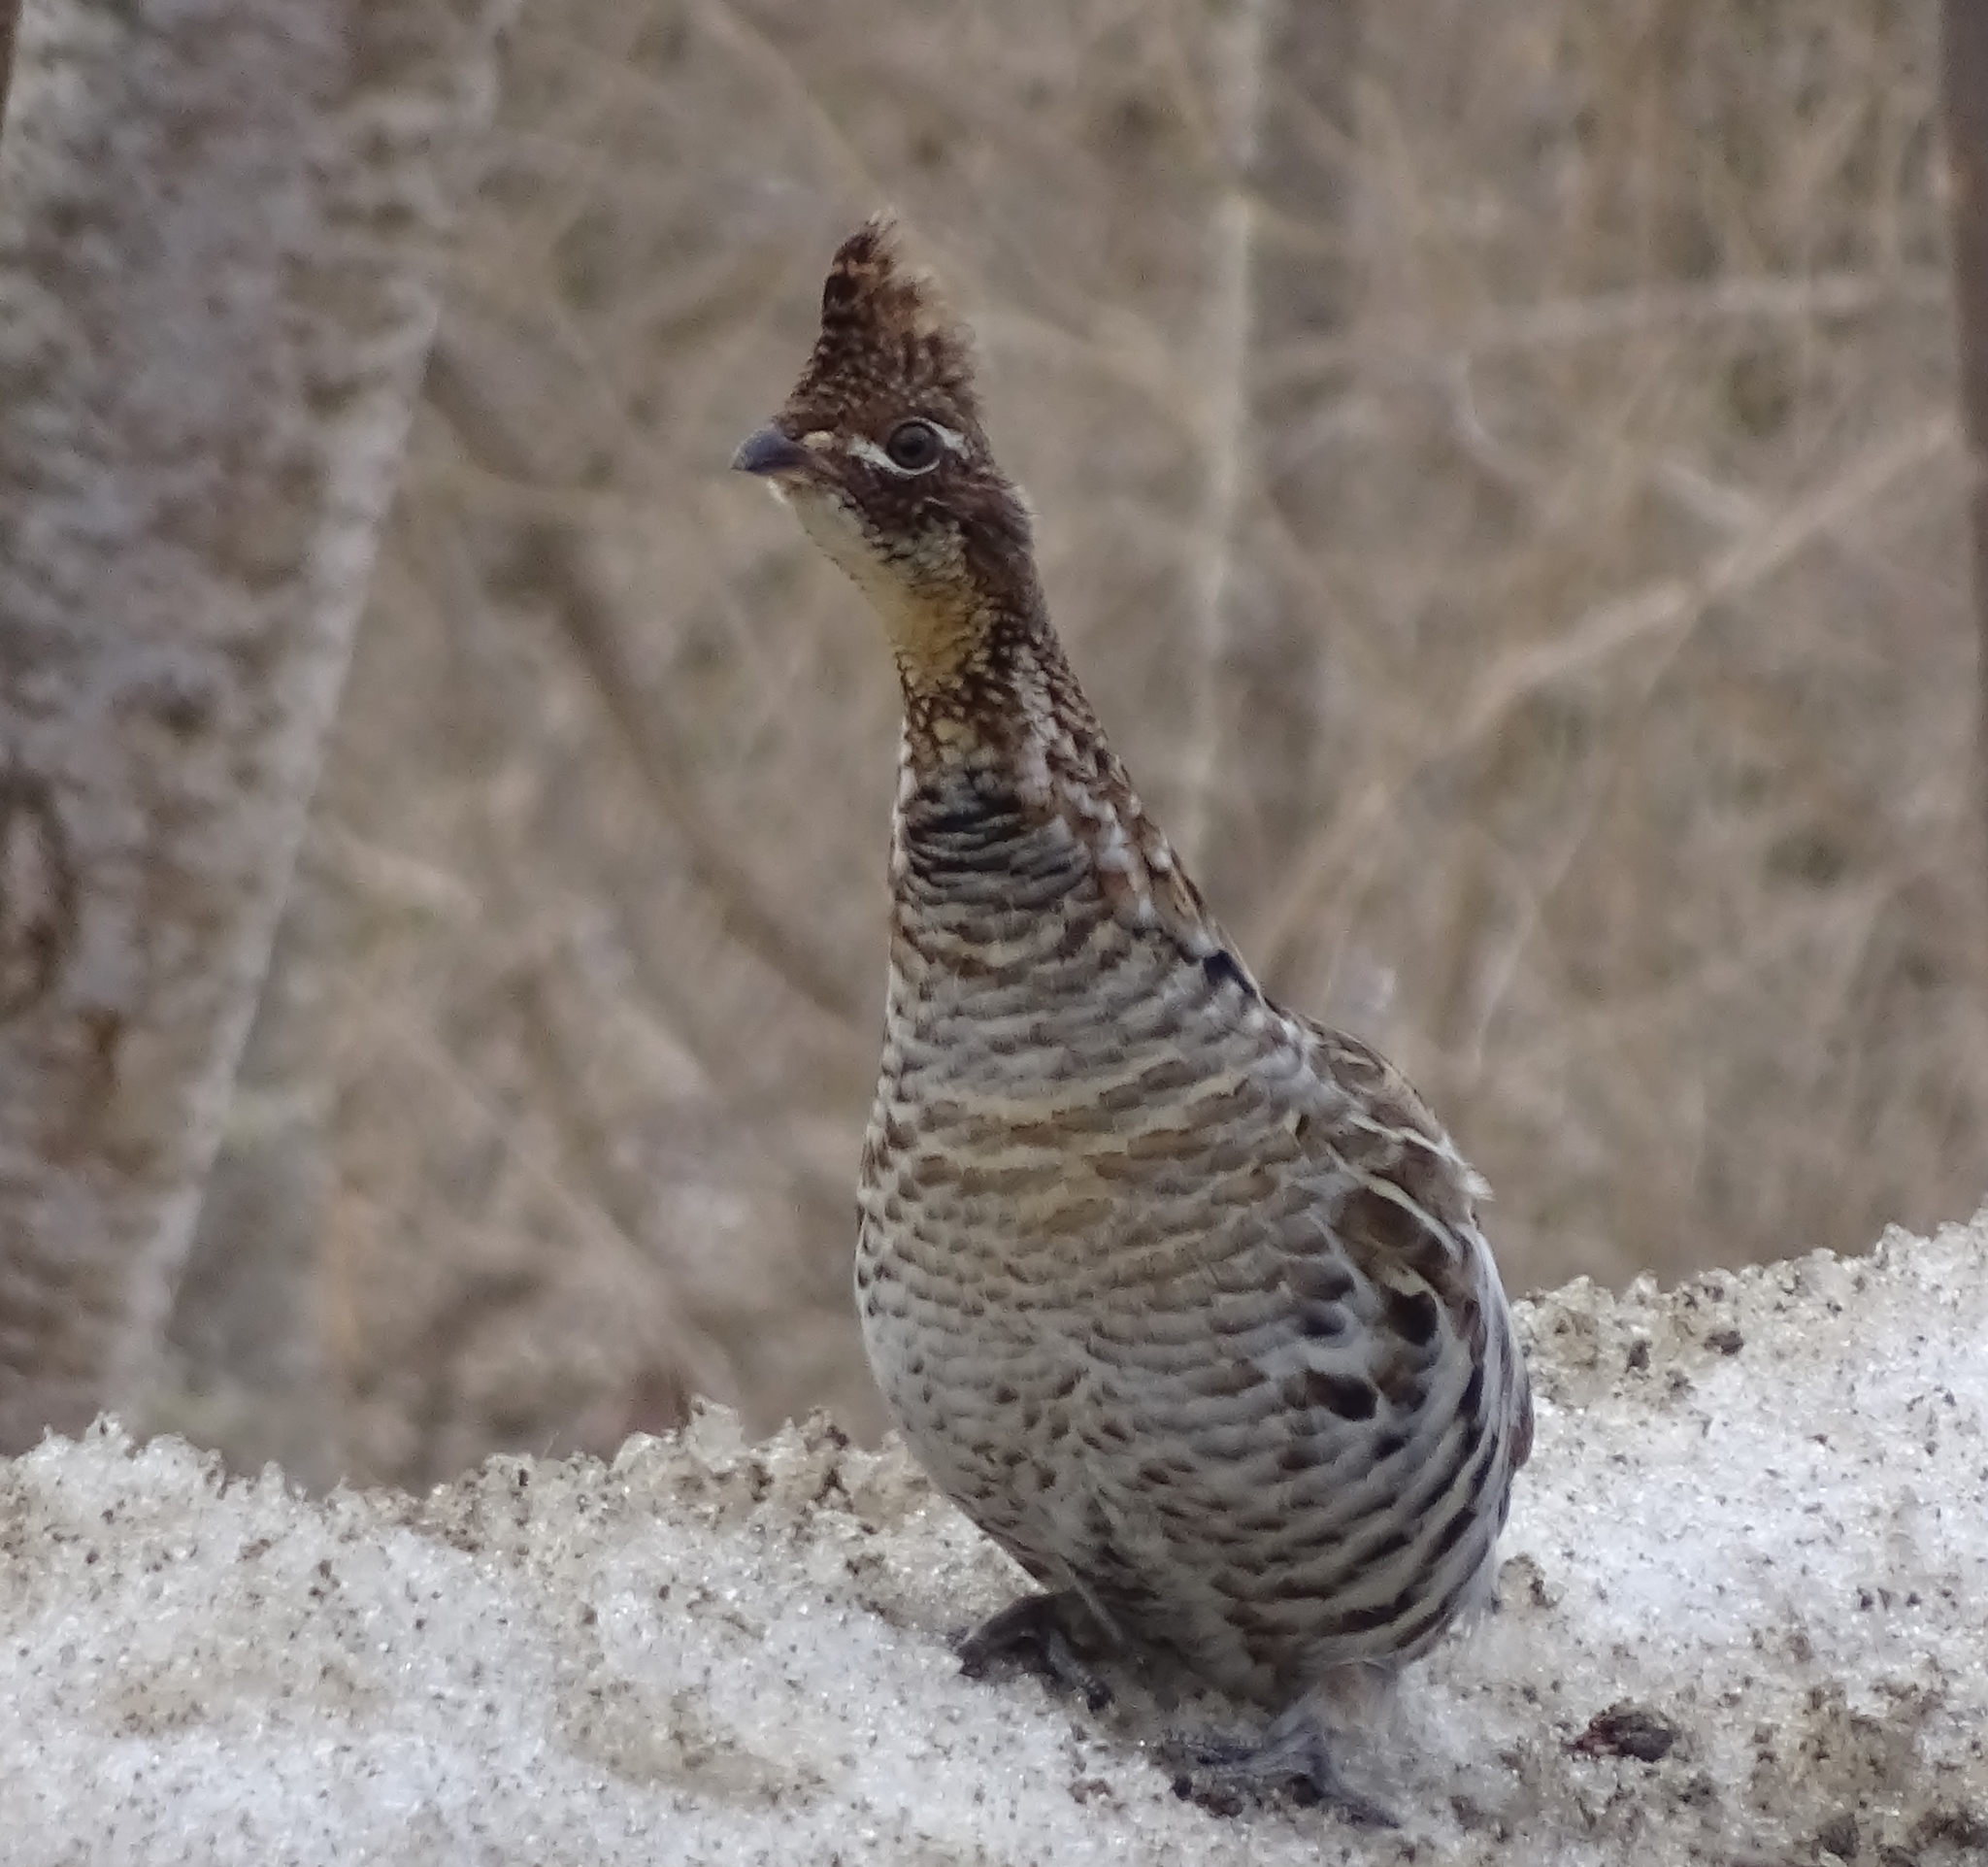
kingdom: Animalia
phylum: Chordata
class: Aves
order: Galliformes
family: Phasianidae
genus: Bonasa
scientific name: Bonasa umbellus
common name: Ruffed grouse
